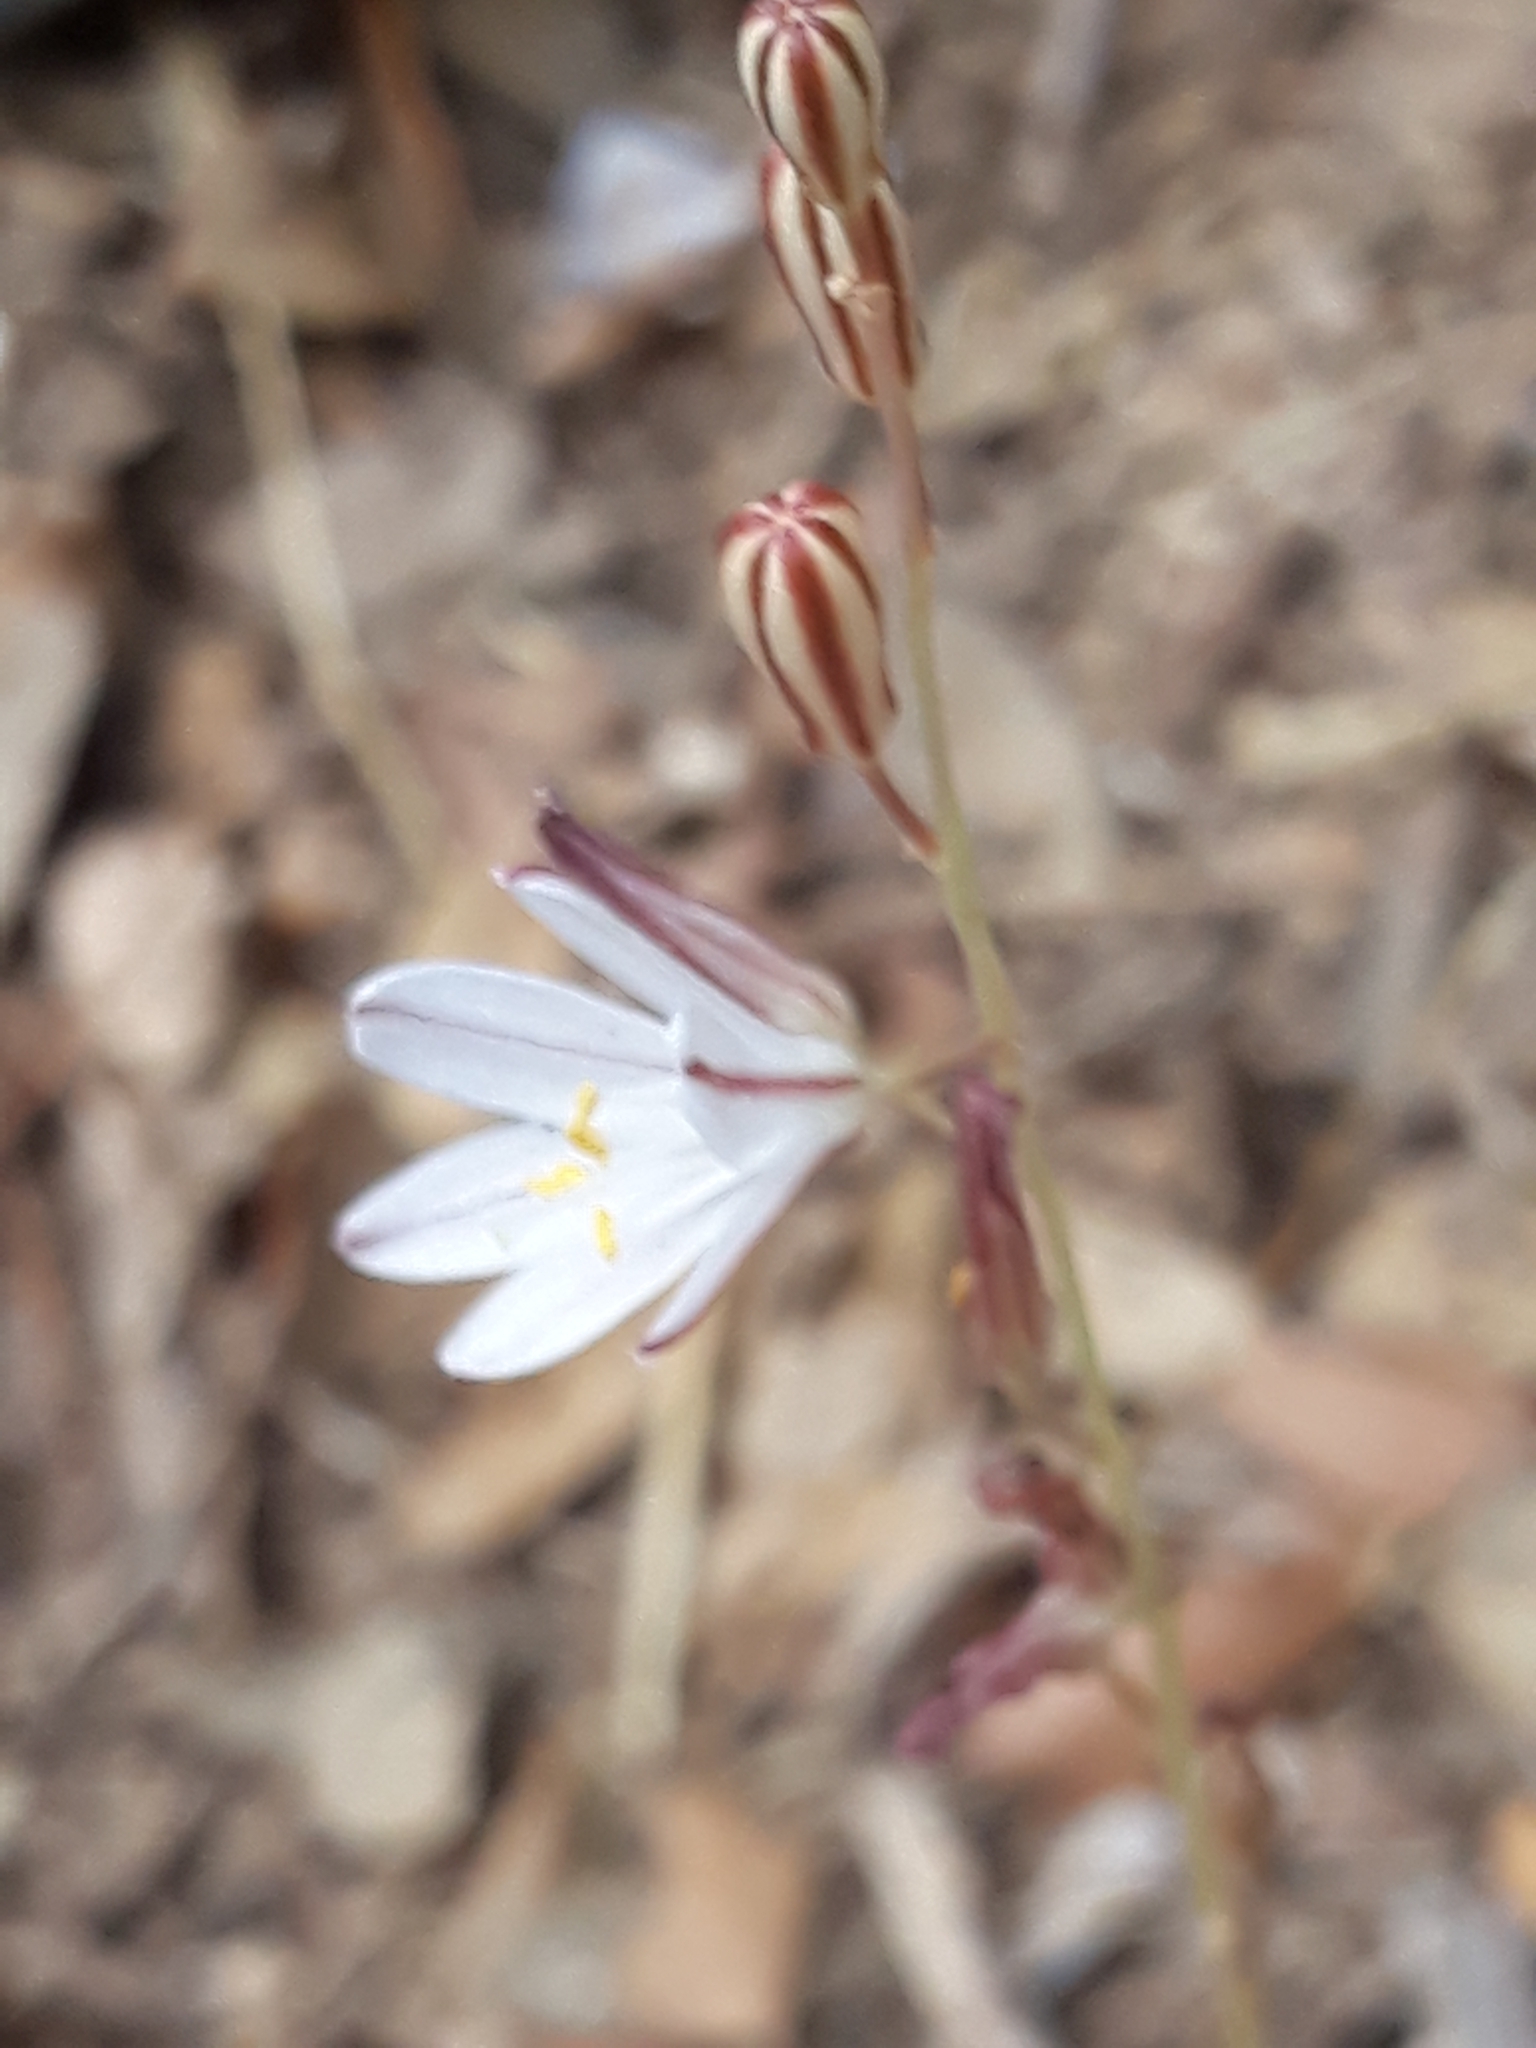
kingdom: Plantae
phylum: Tracheophyta
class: Liliopsida
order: Asparagales
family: Asparagaceae
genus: Drimia
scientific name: Drimia fugax
